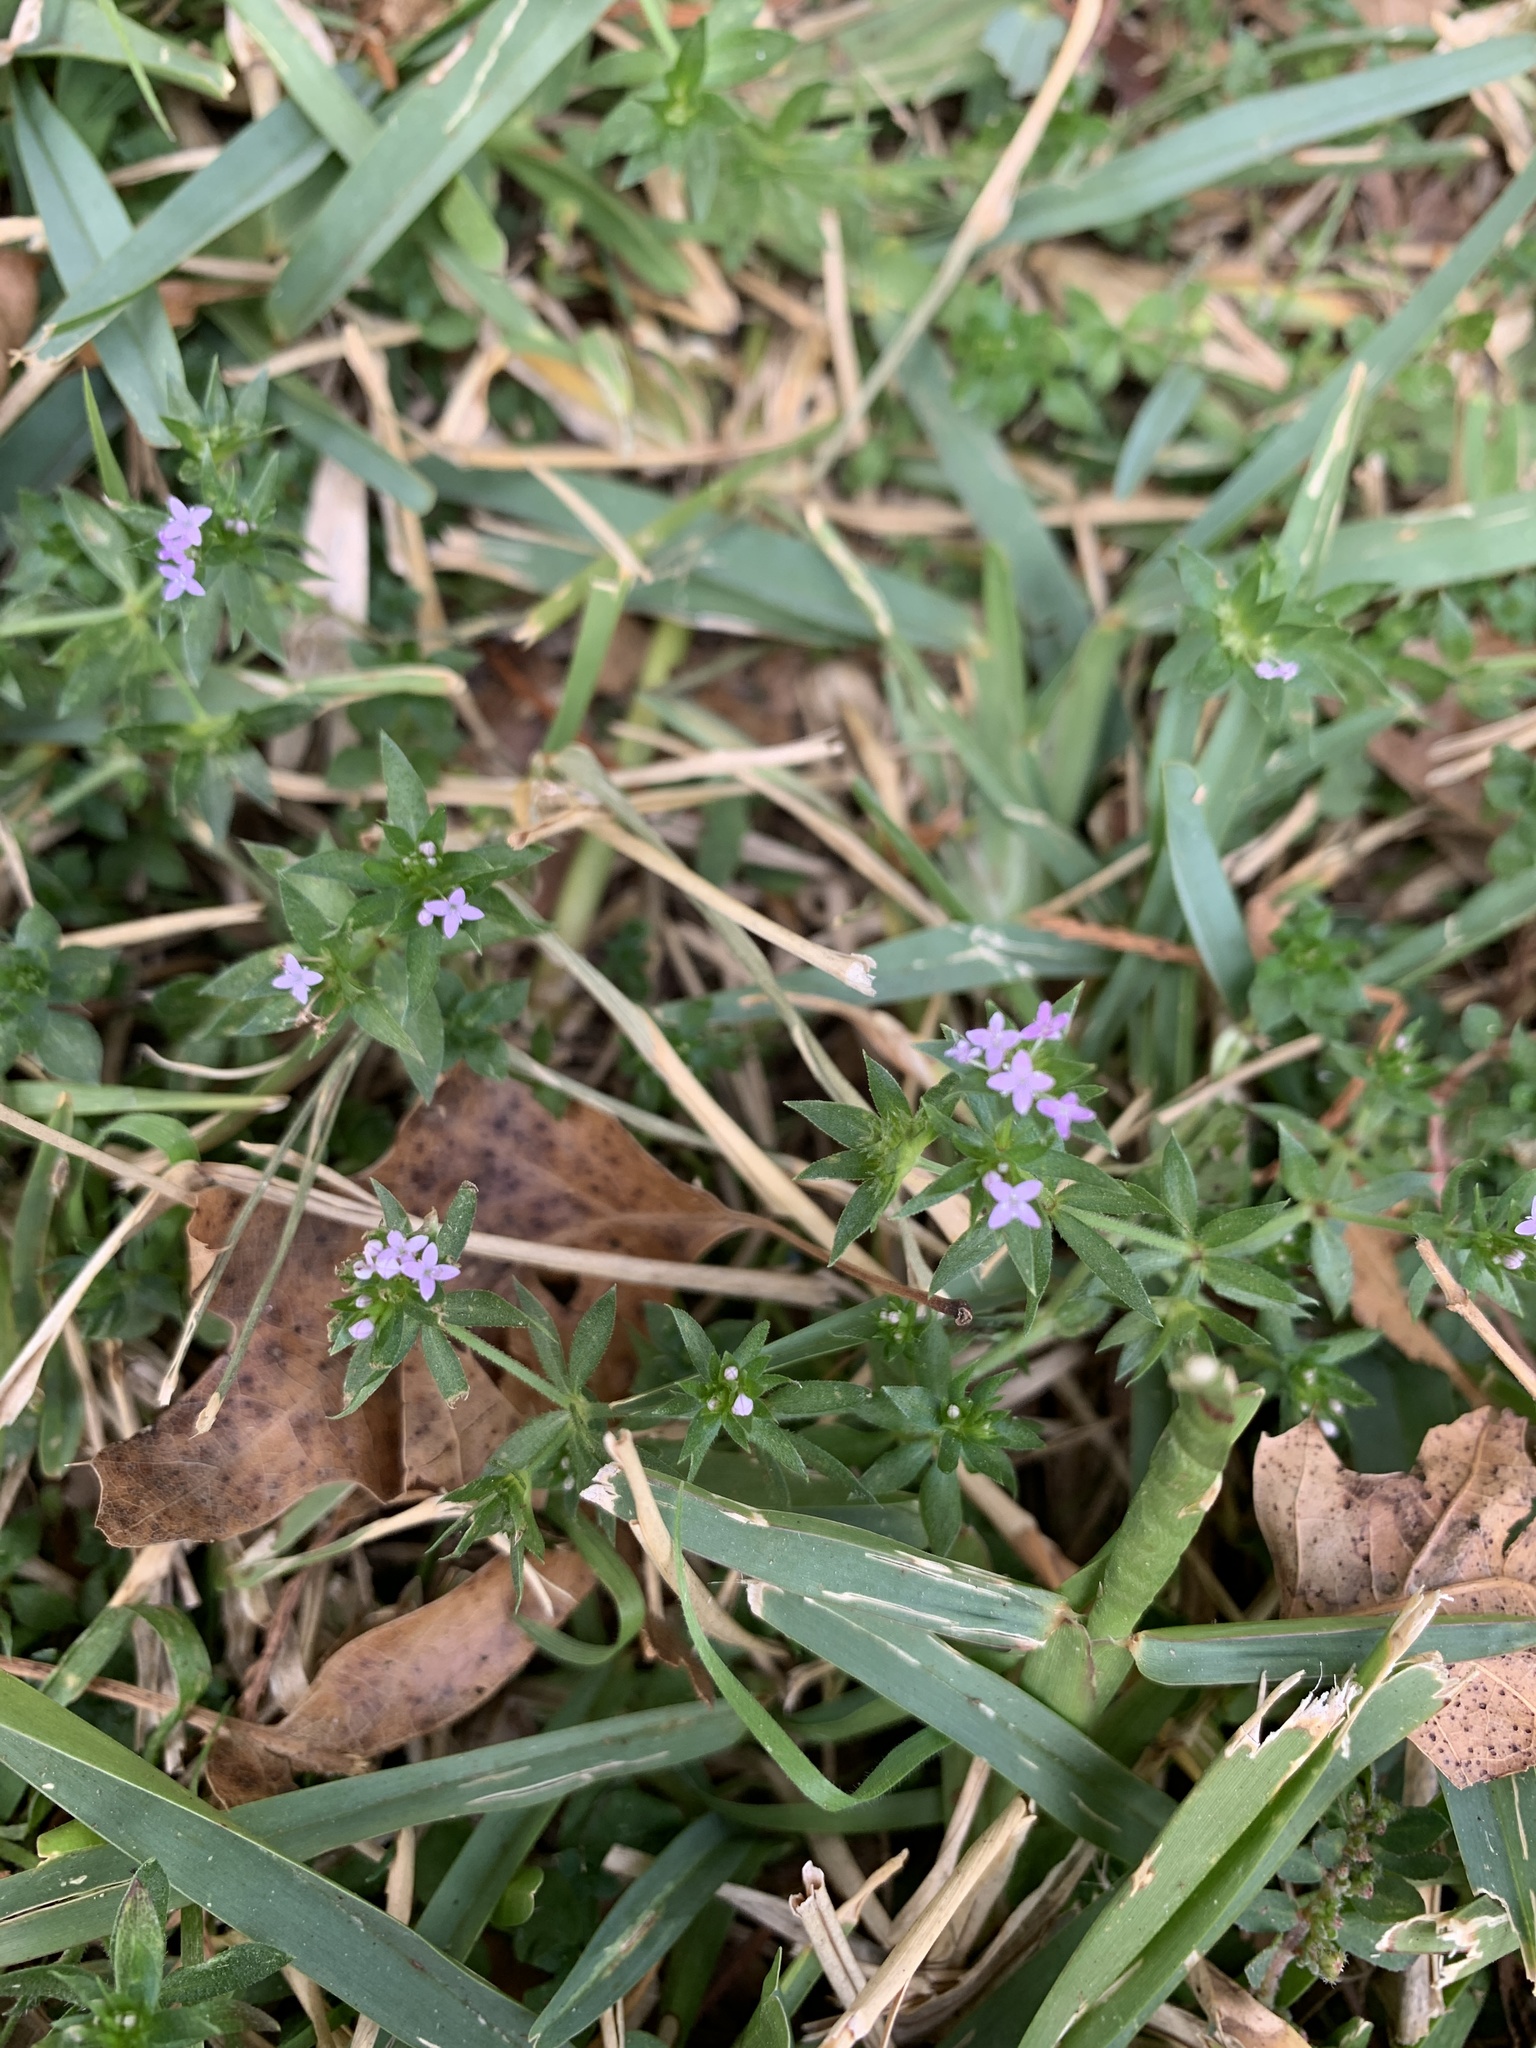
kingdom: Plantae
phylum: Tracheophyta
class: Magnoliopsida
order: Gentianales
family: Rubiaceae
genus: Sherardia
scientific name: Sherardia arvensis
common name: Field madder
